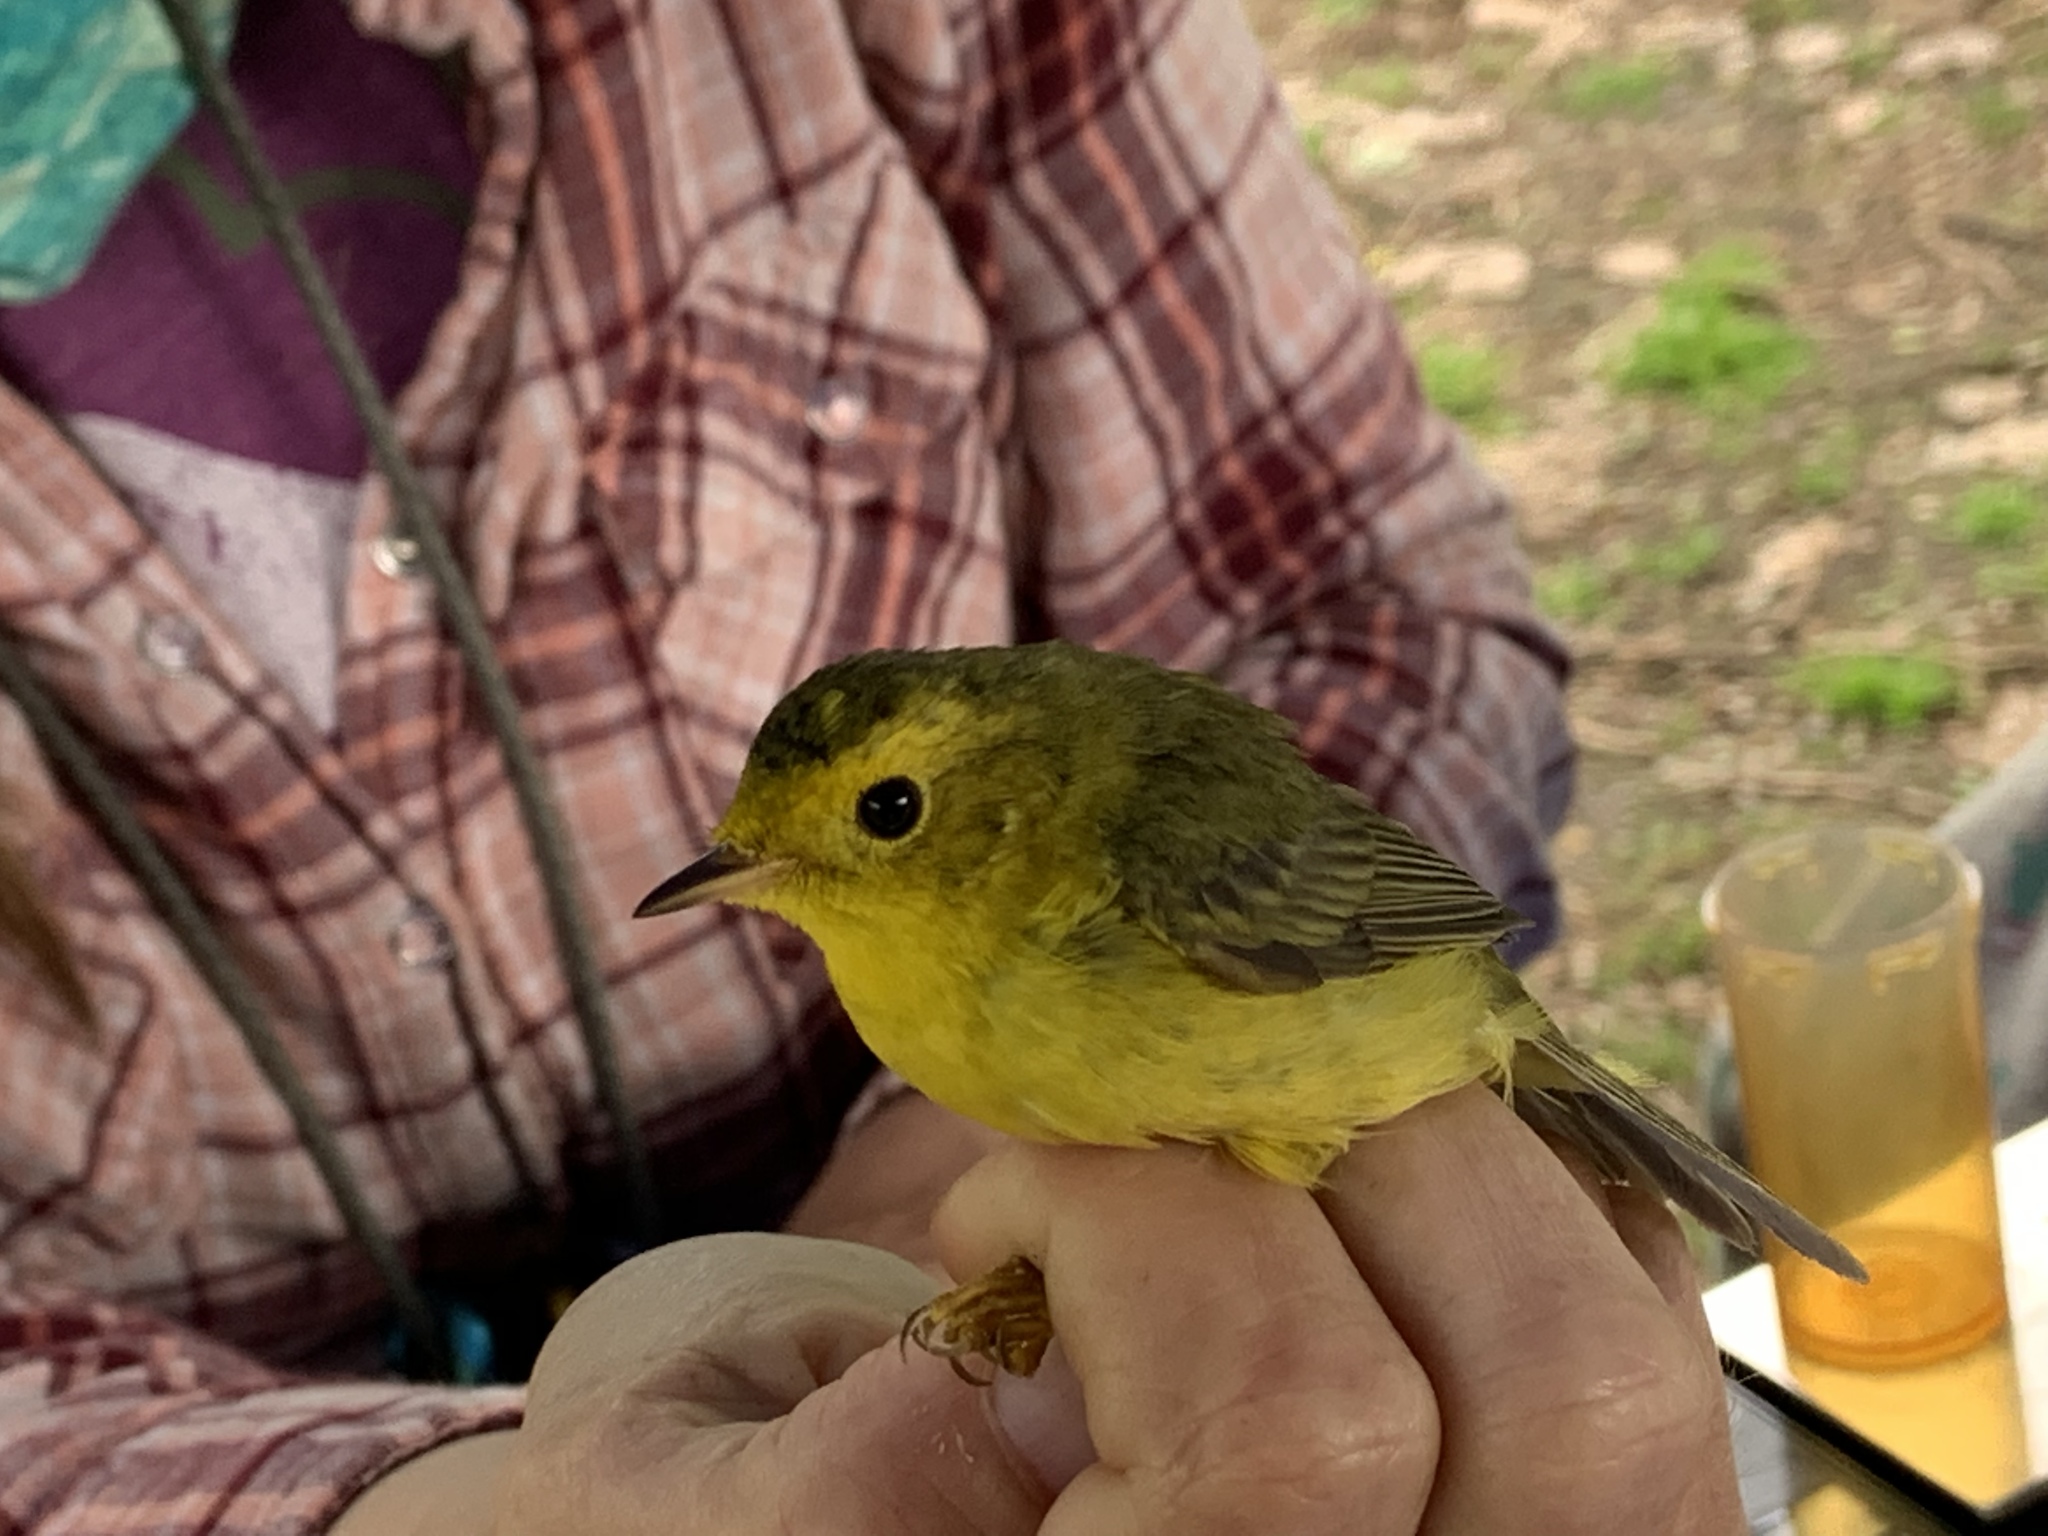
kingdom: Animalia
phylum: Chordata
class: Aves
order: Passeriformes
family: Parulidae
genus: Cardellina
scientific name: Cardellina pusilla
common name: Wilson's warbler
